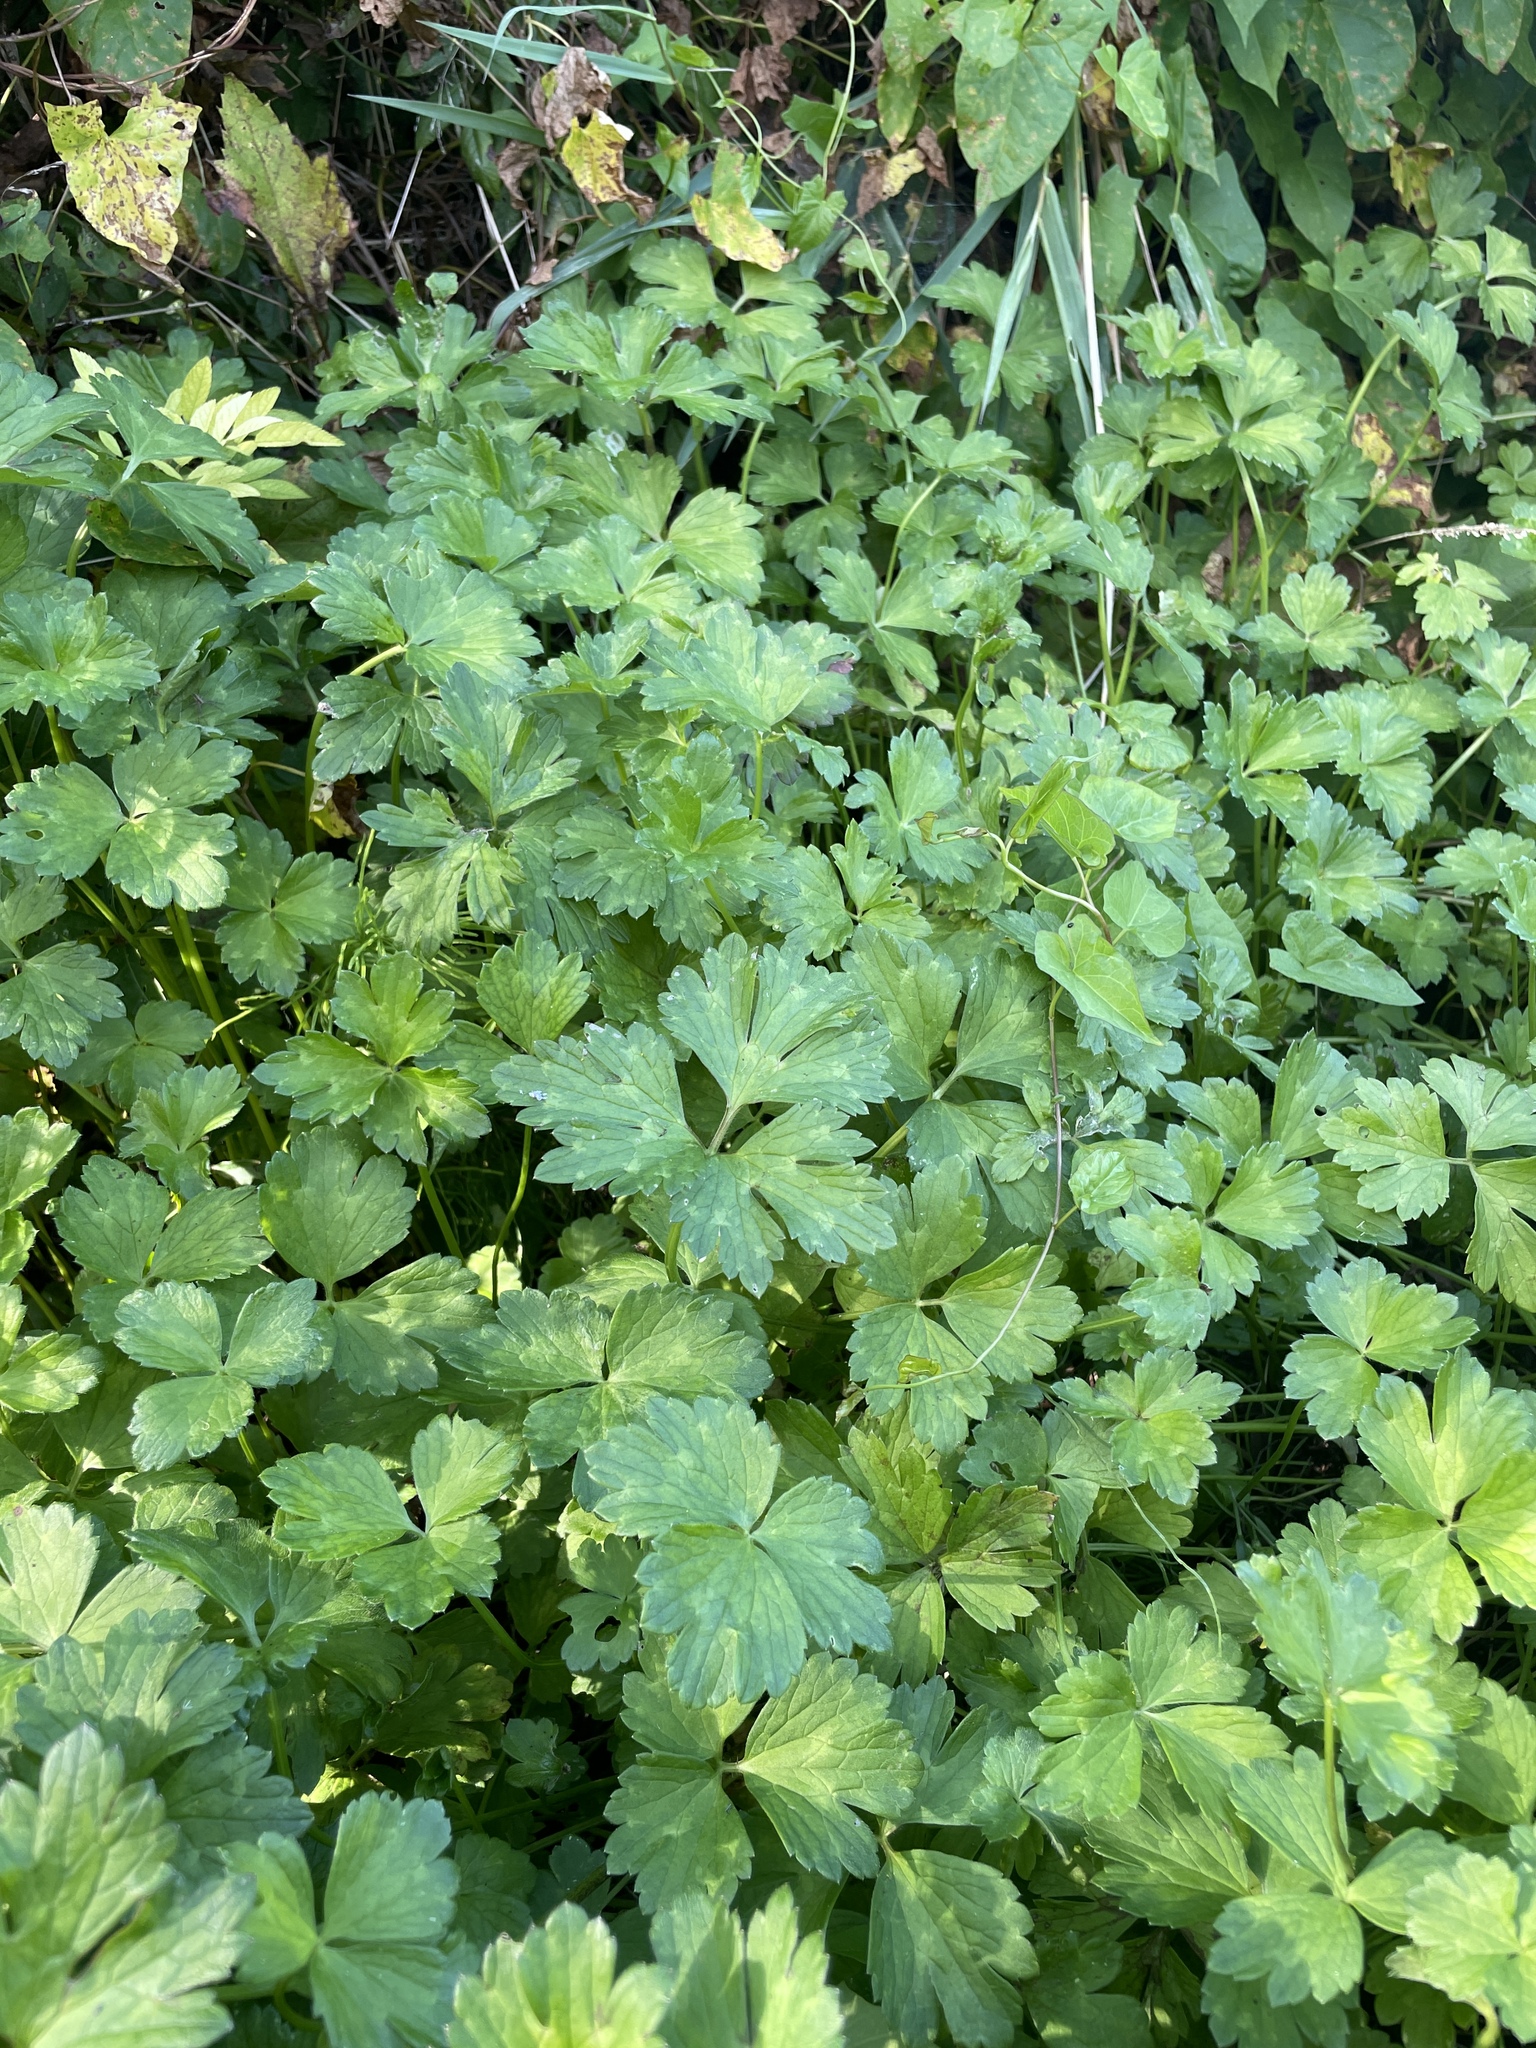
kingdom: Plantae
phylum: Tracheophyta
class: Magnoliopsida
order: Ranunculales
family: Ranunculaceae
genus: Ranunculus
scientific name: Ranunculus repens
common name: Creeping buttercup
